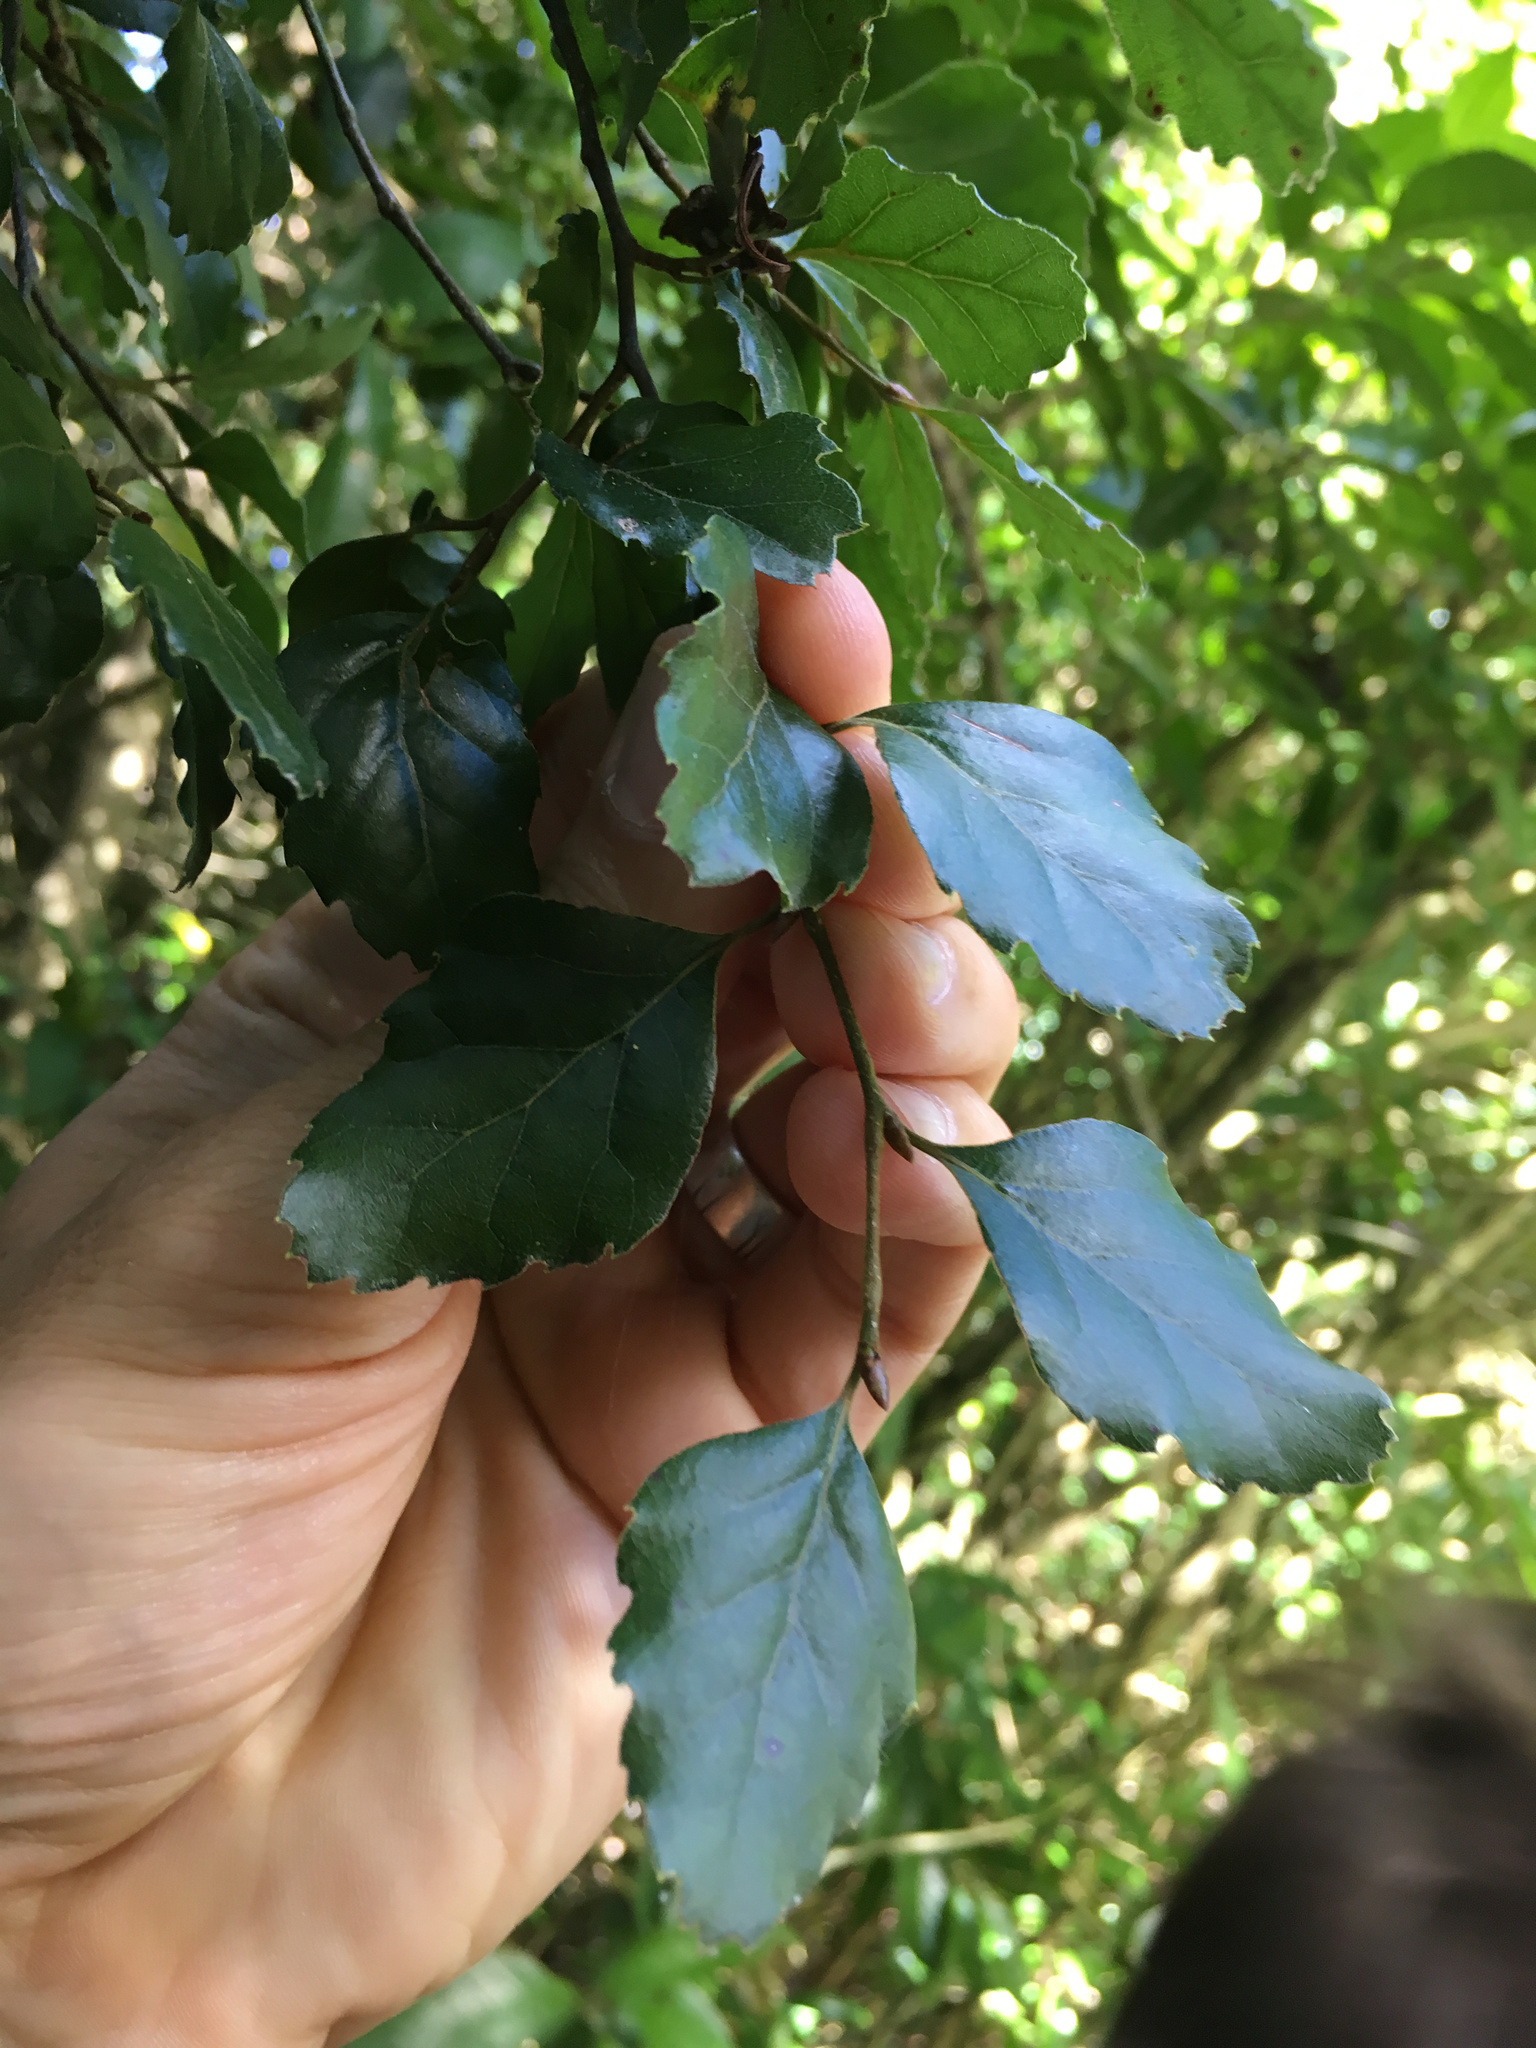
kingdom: Plantae
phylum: Tracheophyta
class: Magnoliopsida
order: Fagales
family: Nothofagaceae
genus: Nothofagus
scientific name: Nothofagus fusca
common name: Red beech
